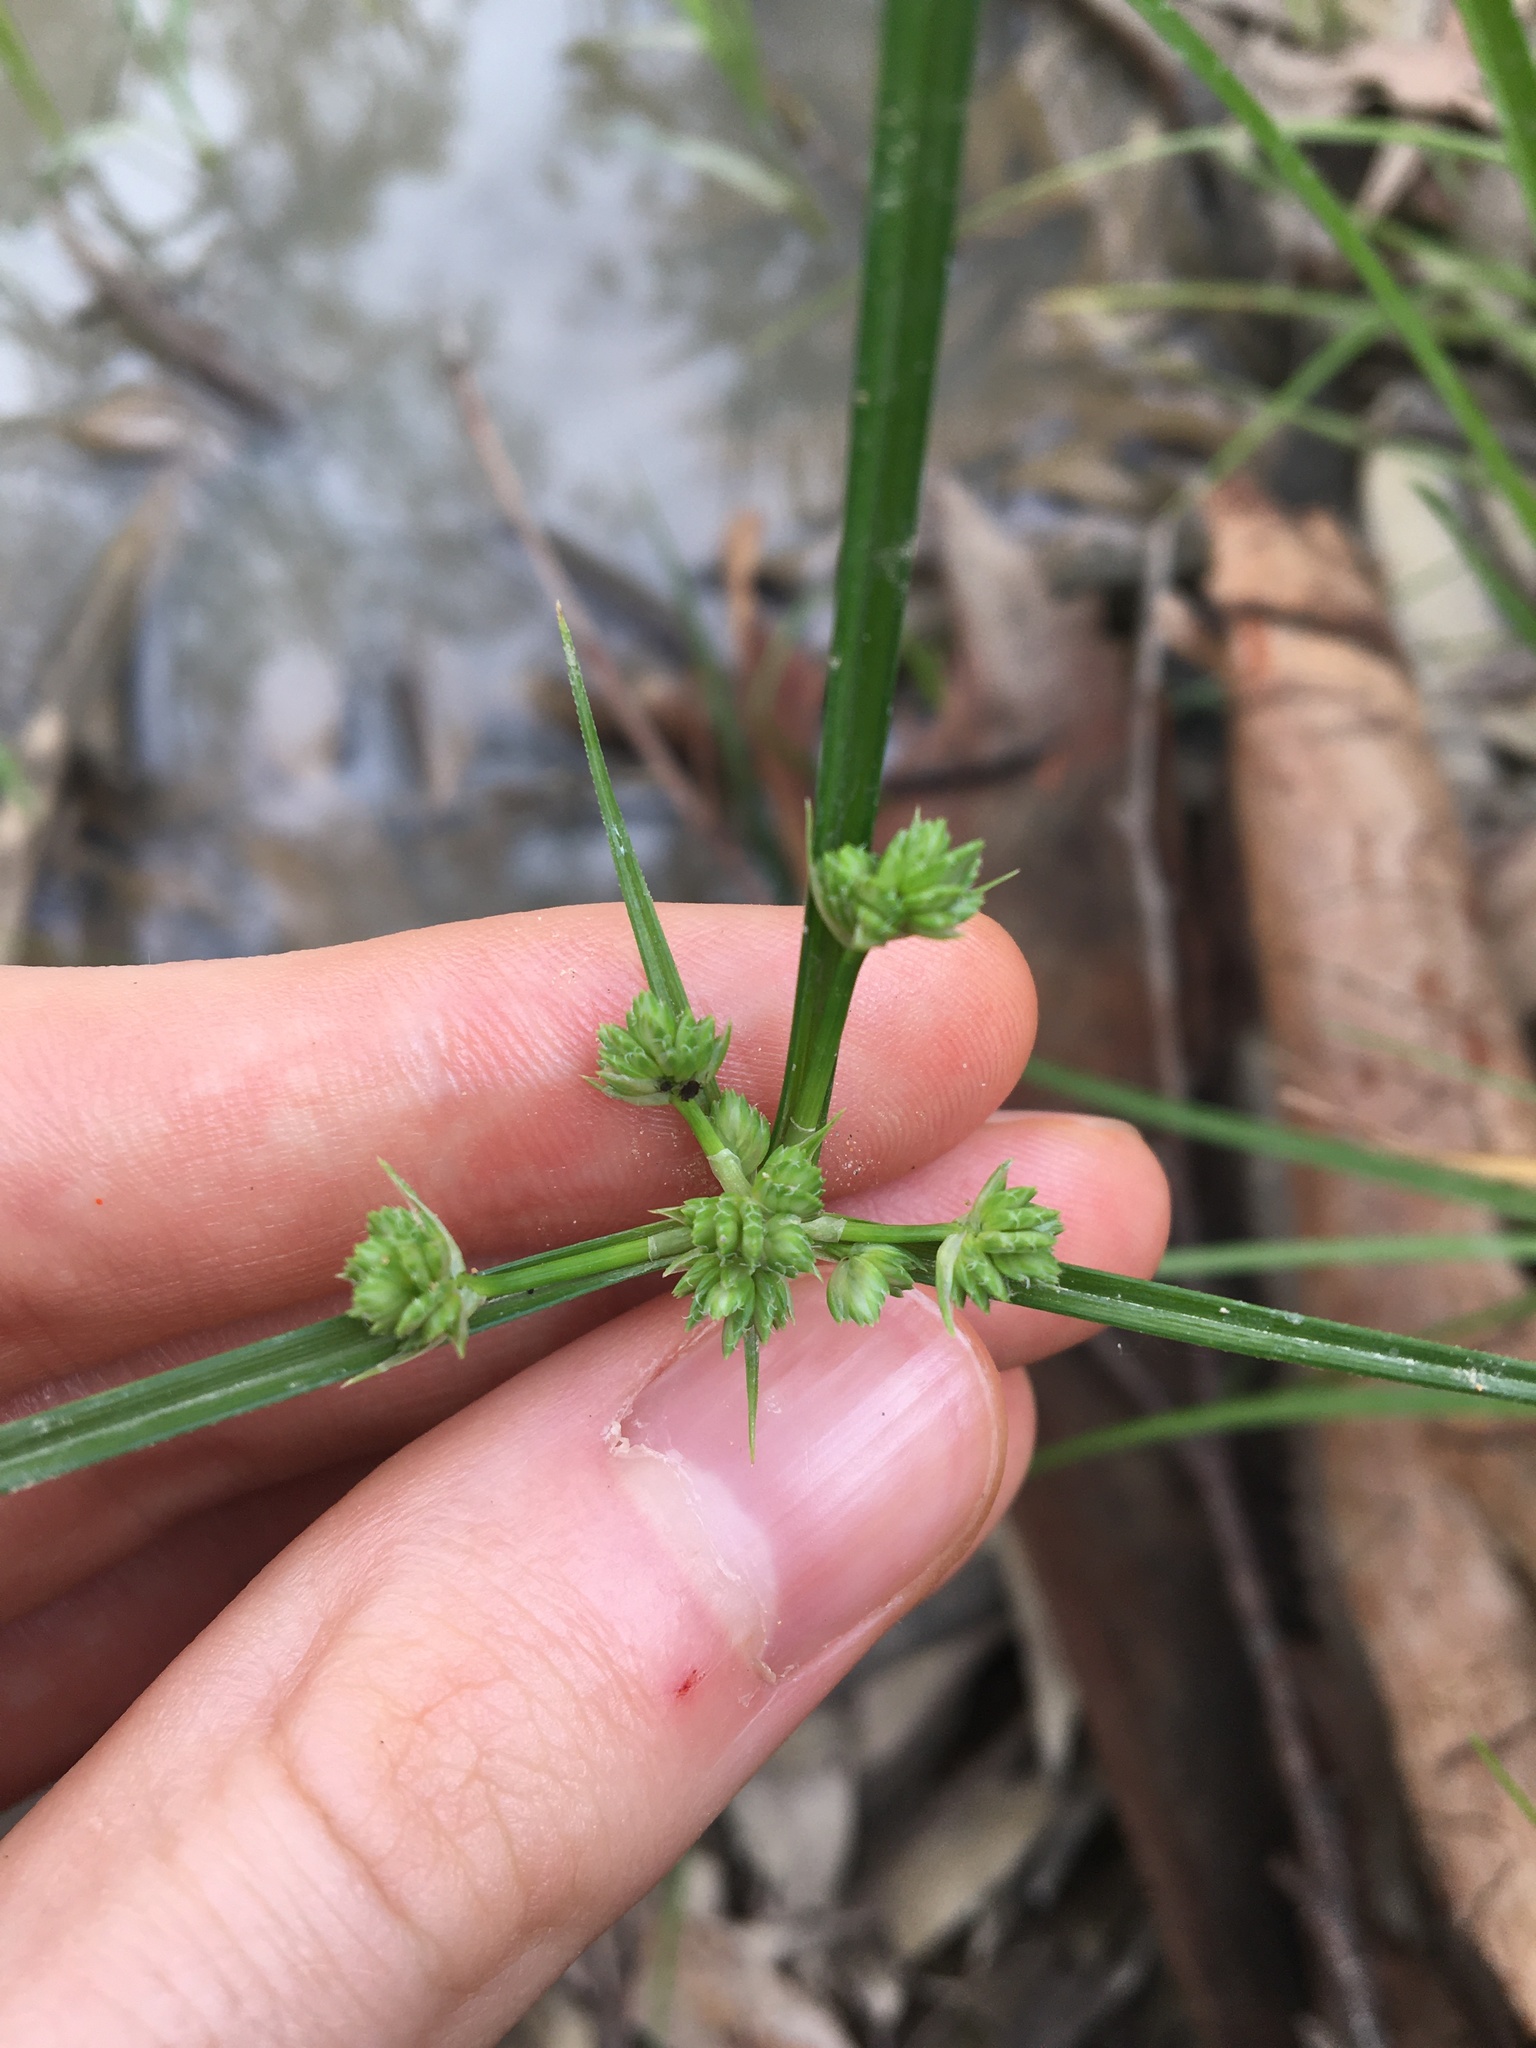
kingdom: Plantae
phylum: Tracheophyta
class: Liliopsida
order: Poales
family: Cyperaceae
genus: Cyperus
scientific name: Cyperus eragrostis
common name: Tall flatsedge
